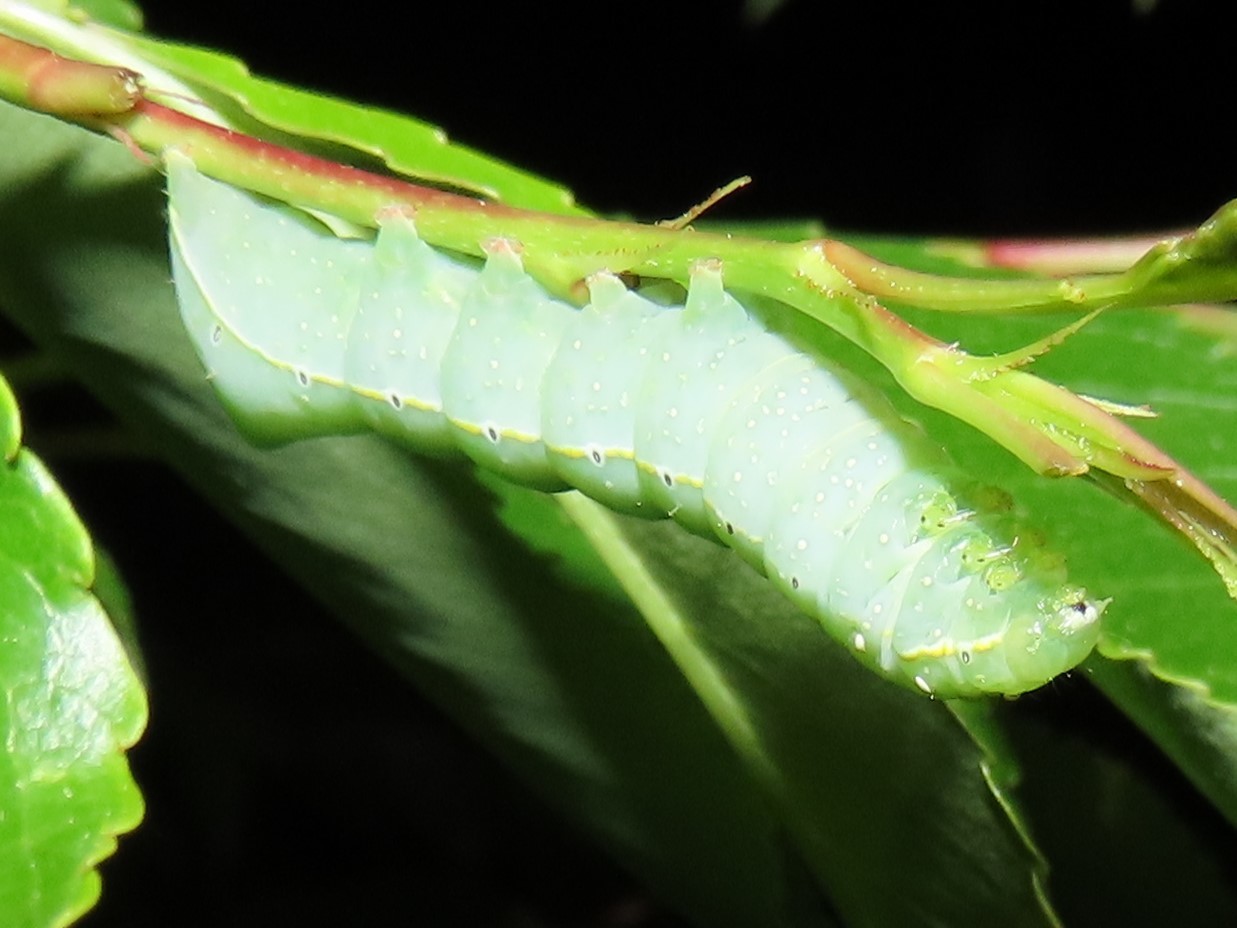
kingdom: Animalia
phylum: Arthropoda
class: Insecta
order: Lepidoptera
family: Noctuidae
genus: Amphipyra
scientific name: Amphipyra pyramidoides
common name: American copper underwing
